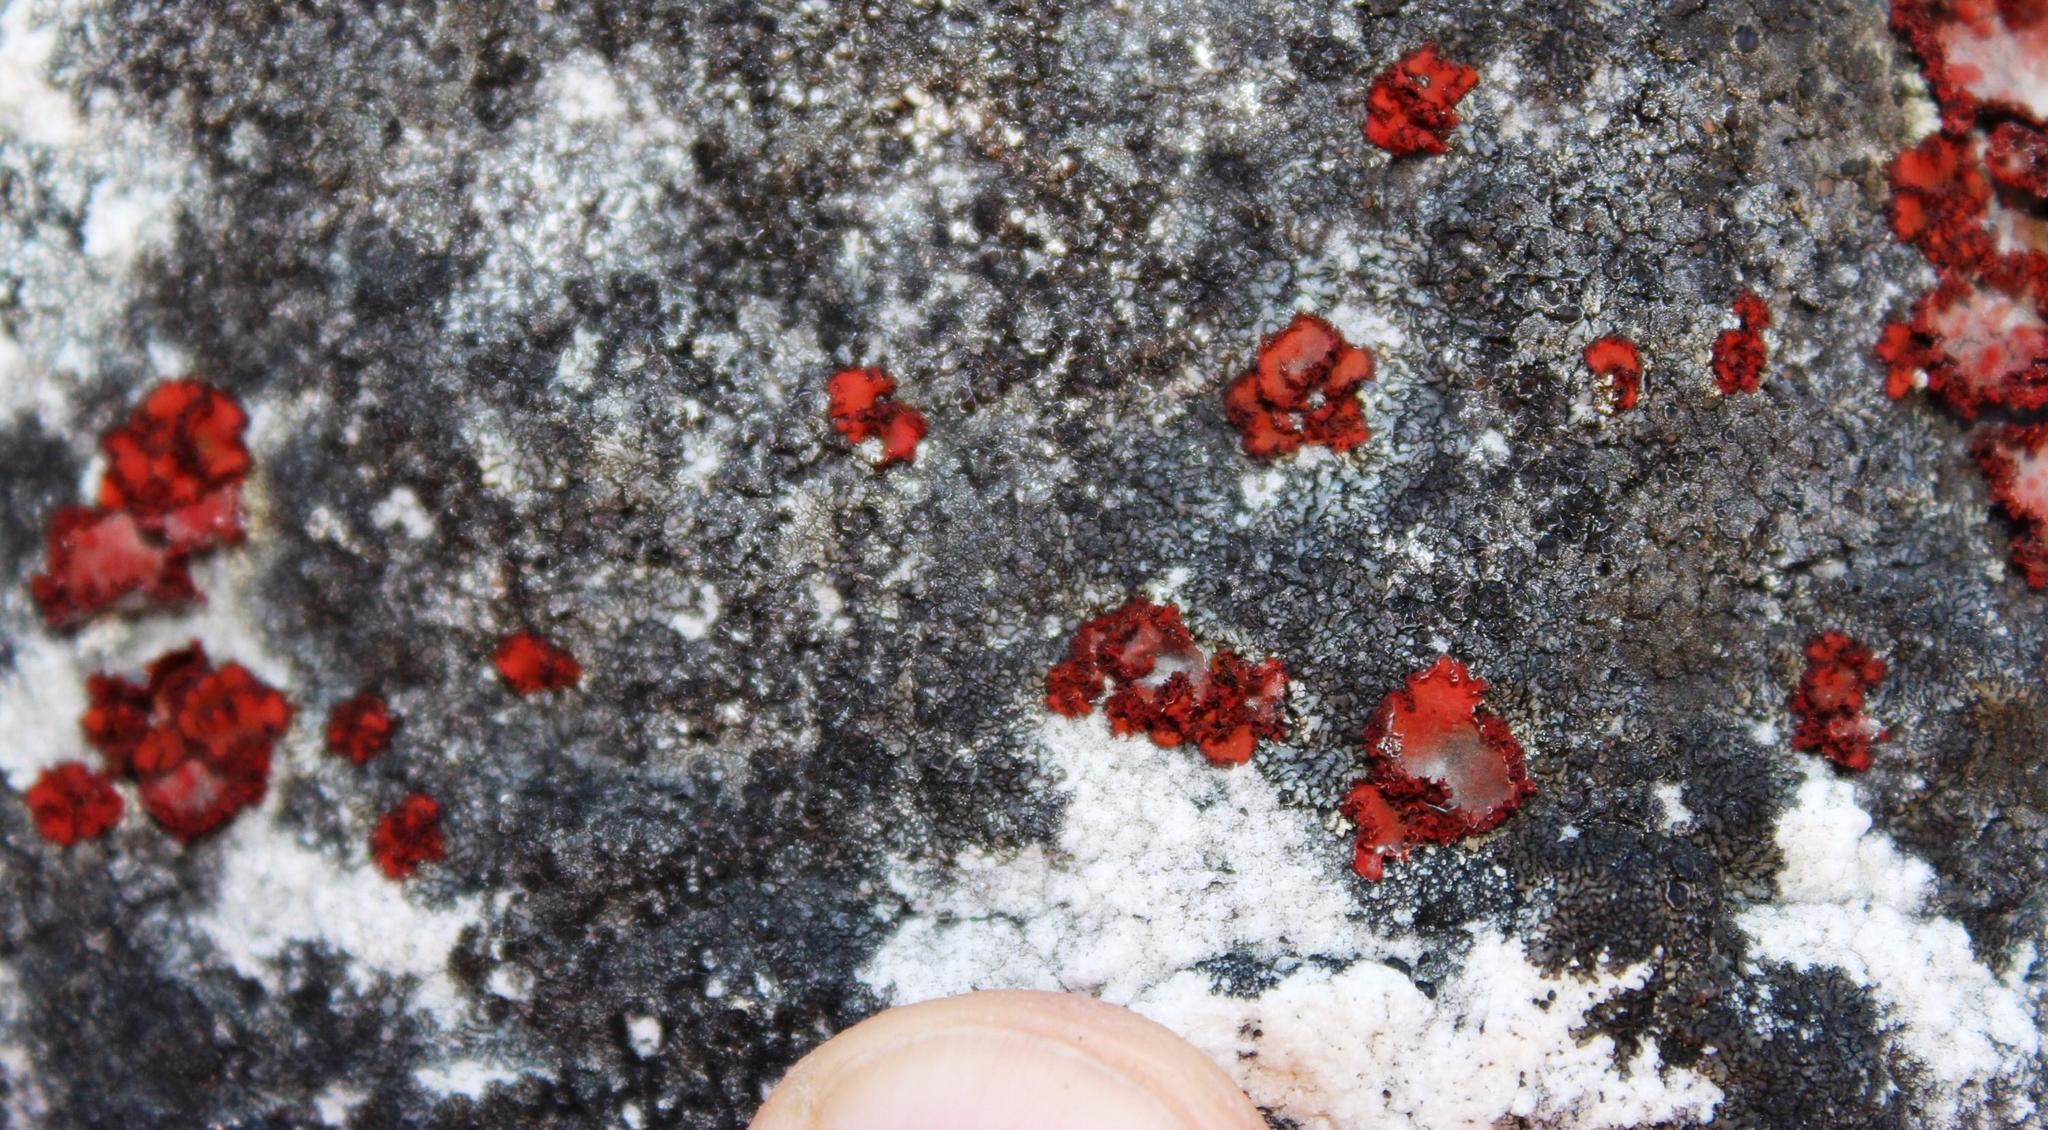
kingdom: Fungi
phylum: Ascomycota
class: Lecanoromycetes
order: Umbilicariales
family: Umbilicariaceae
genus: Lasallia
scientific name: Lasallia rubiginosa
